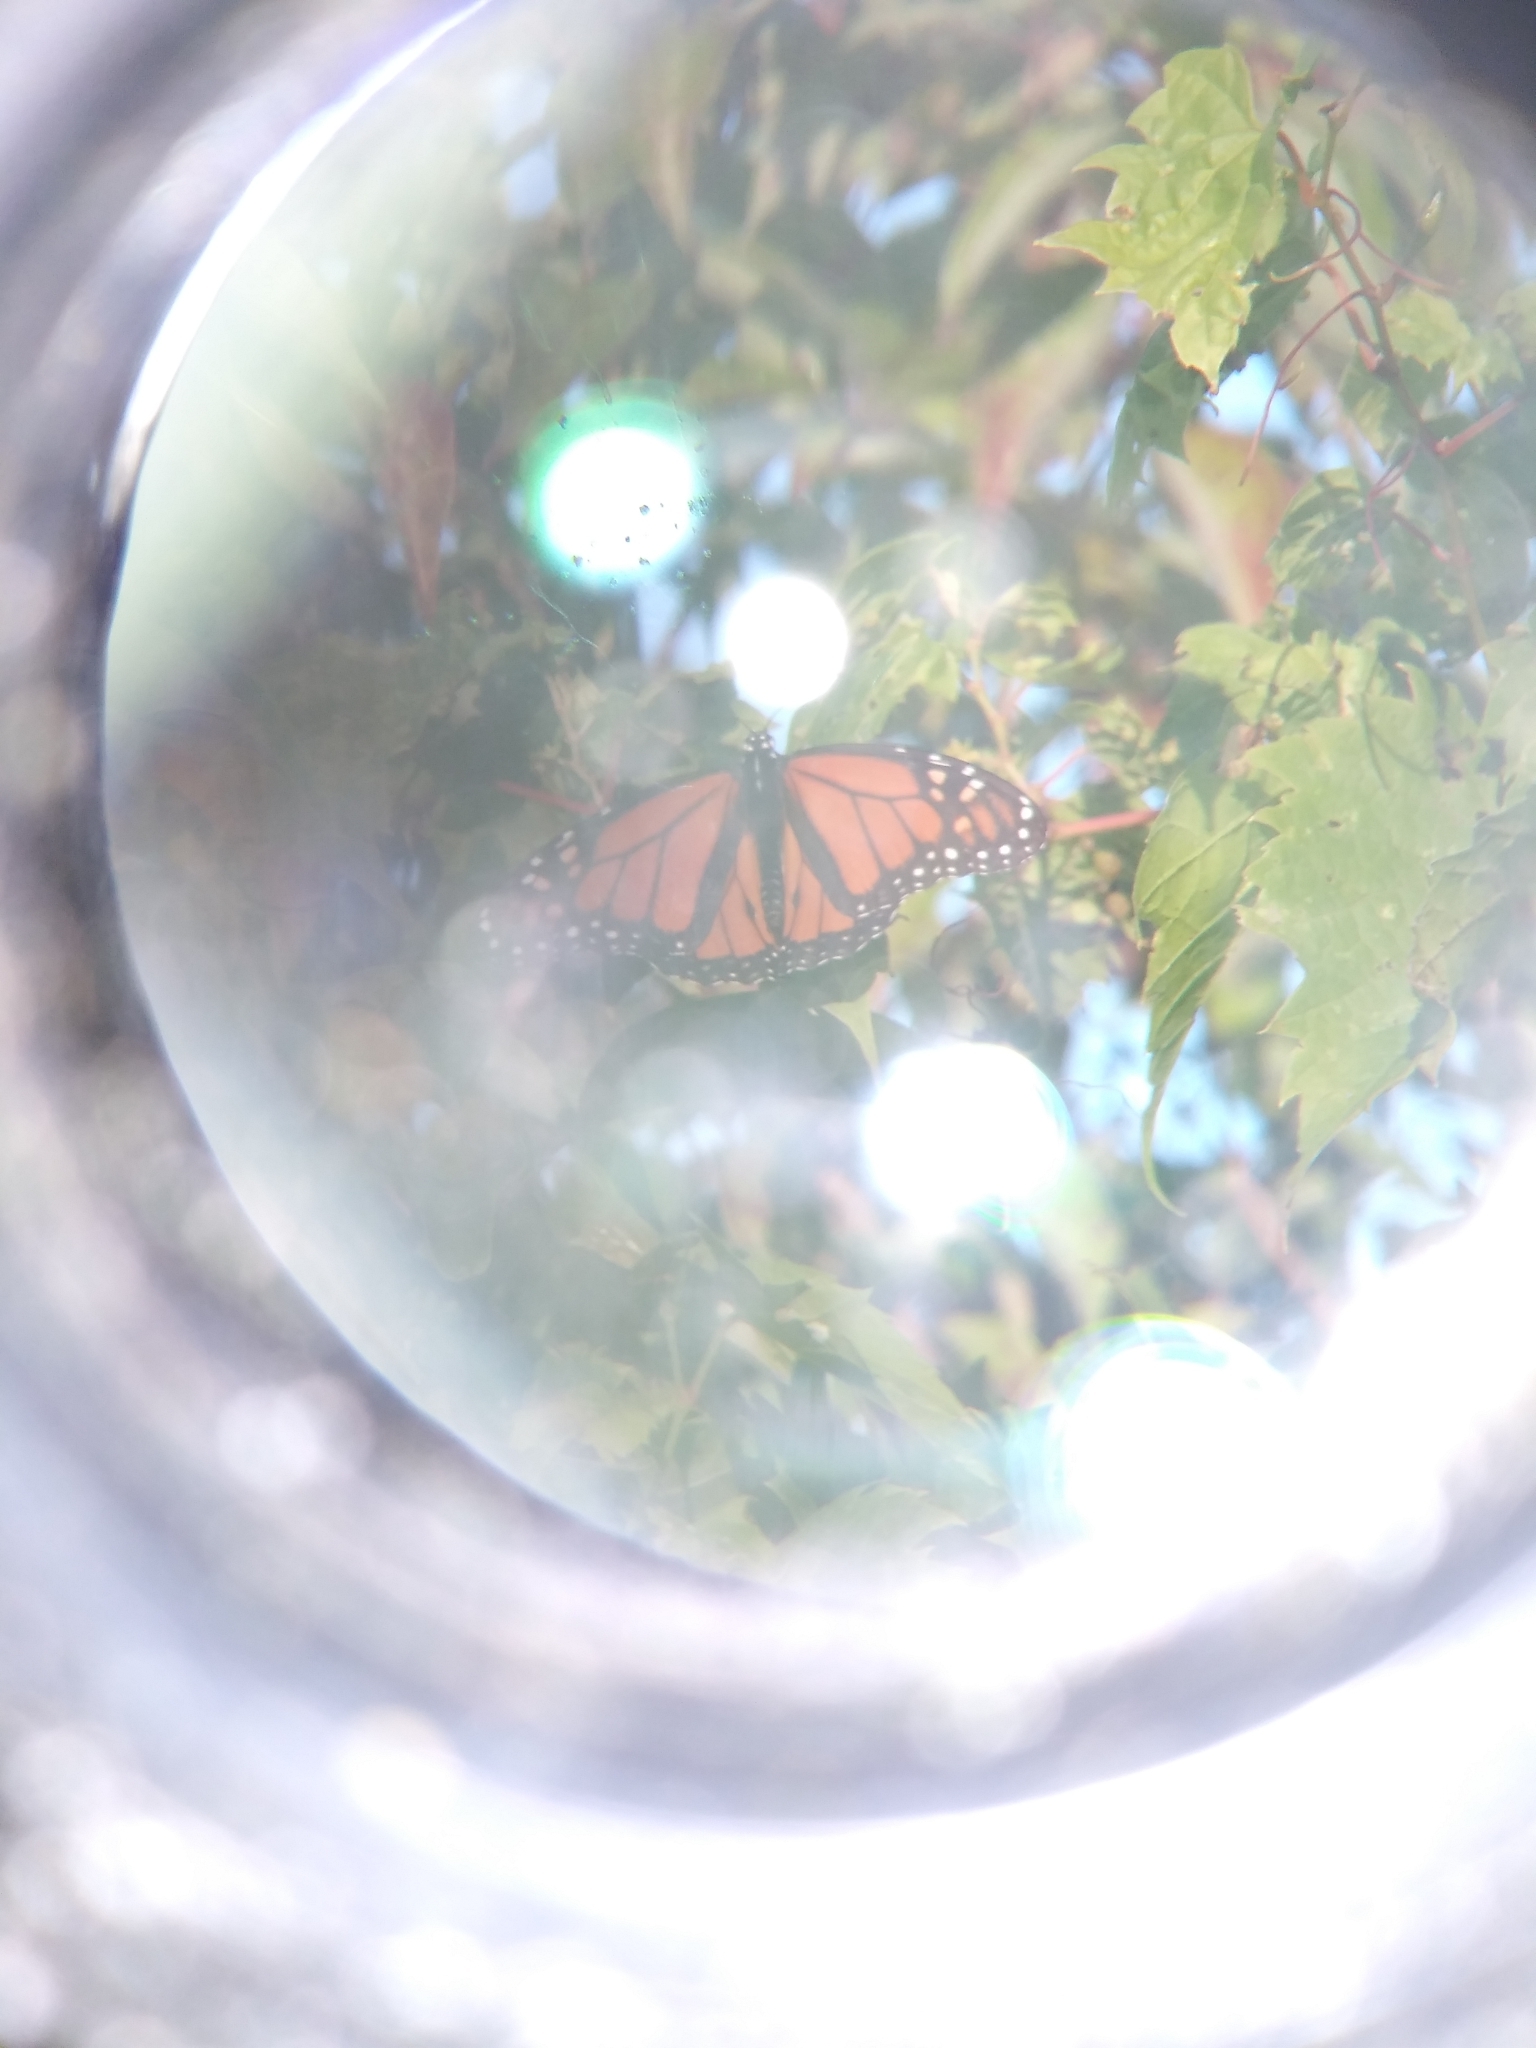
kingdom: Animalia
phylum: Arthropoda
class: Insecta
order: Lepidoptera
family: Nymphalidae
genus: Danaus
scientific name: Danaus plexippus
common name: Monarch
